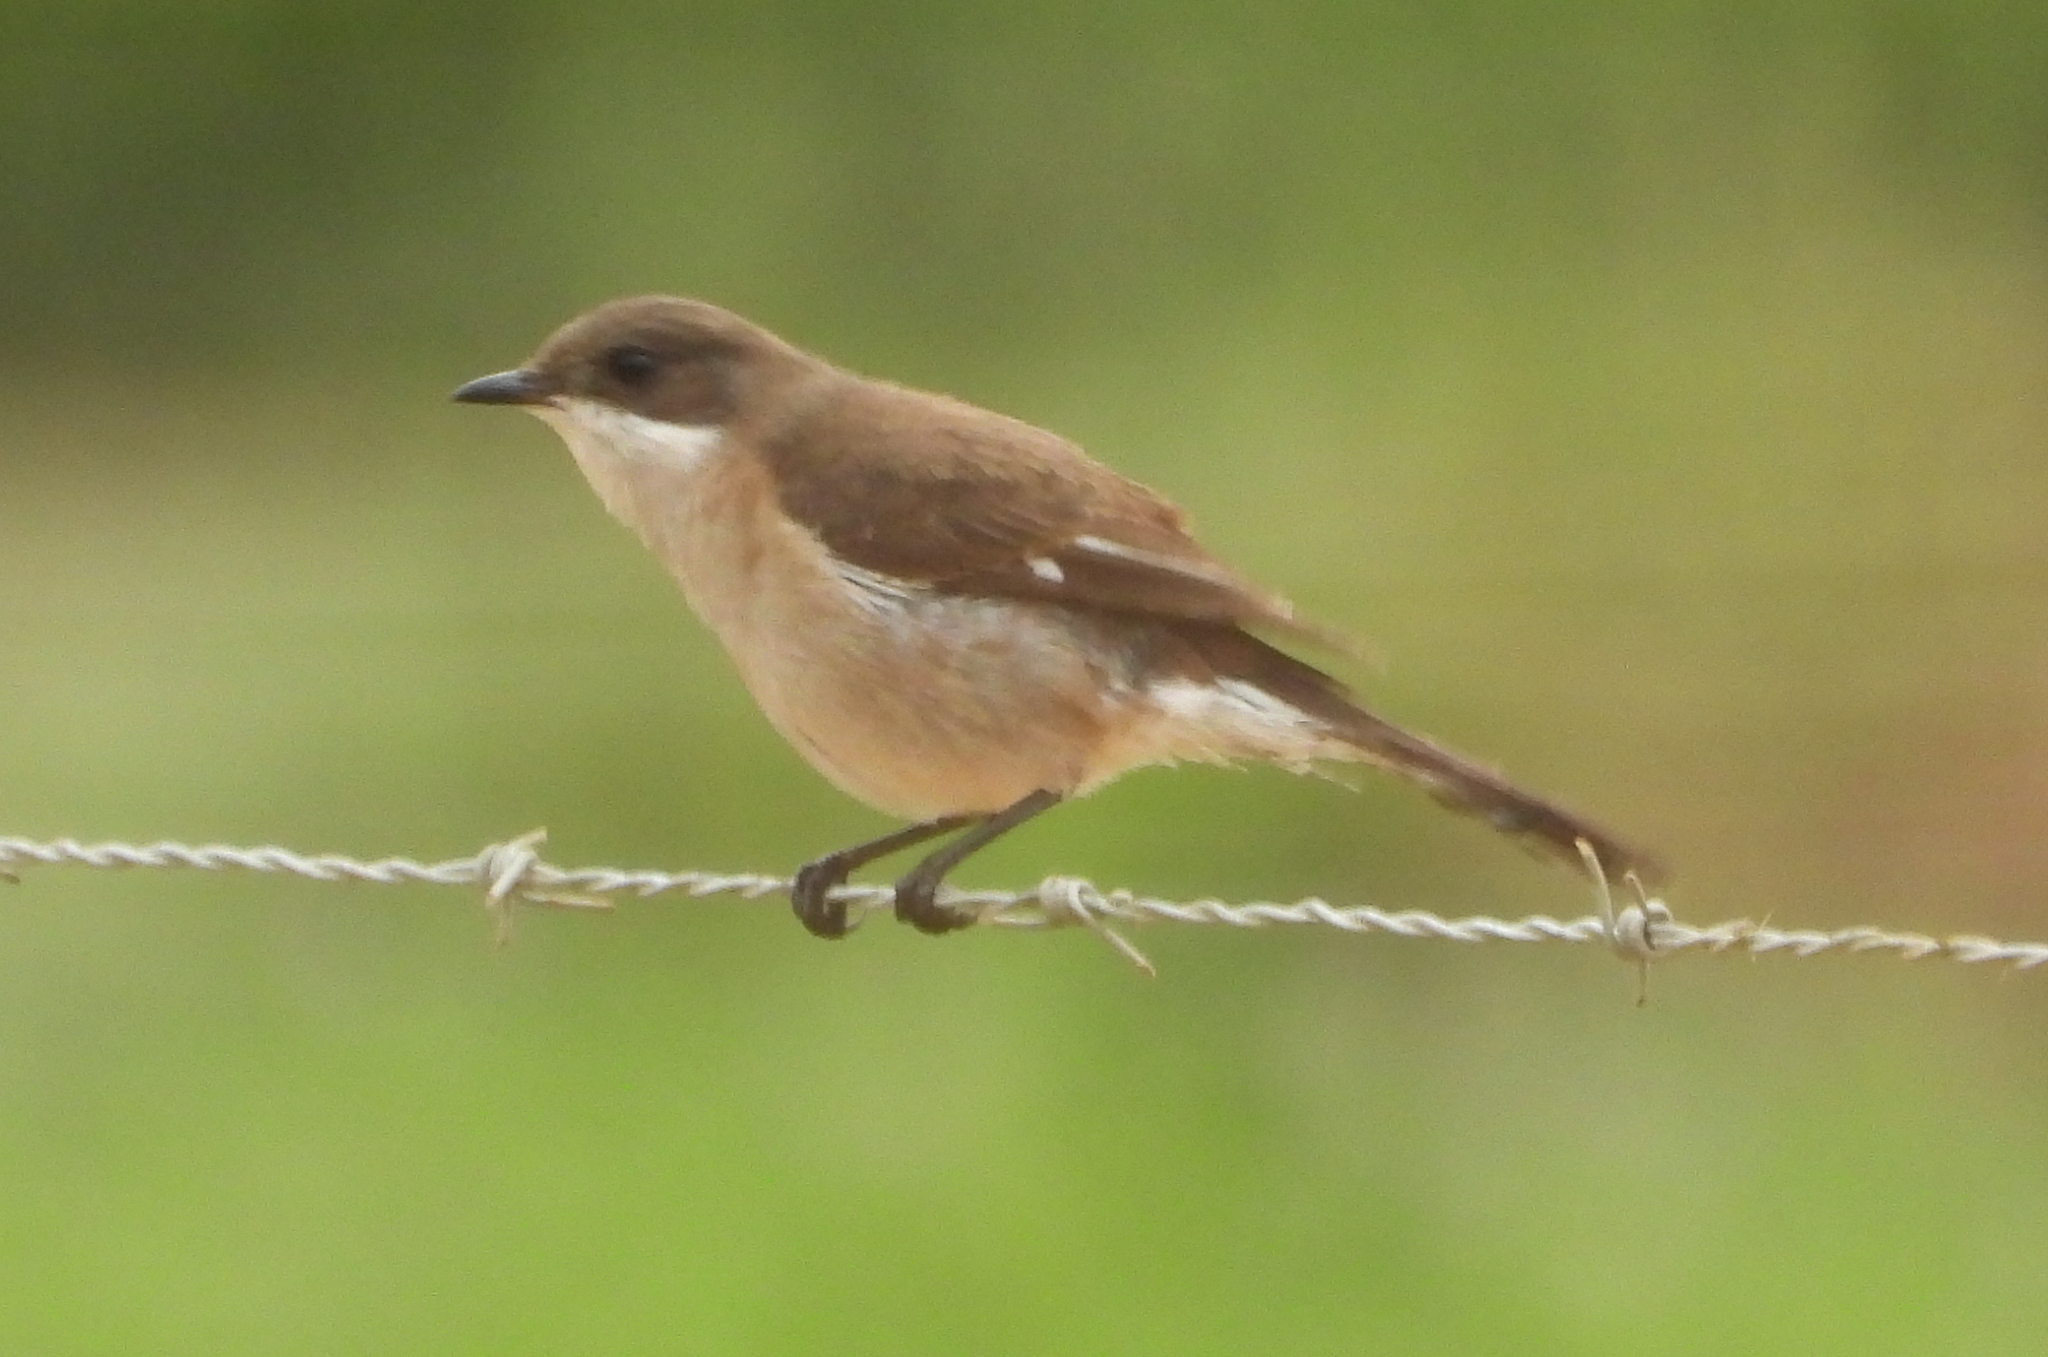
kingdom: Animalia
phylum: Chordata
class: Aves
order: Passeriformes
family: Muscicapidae
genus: Sigelus
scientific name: Sigelus silens
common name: Fiscal flycatcher
